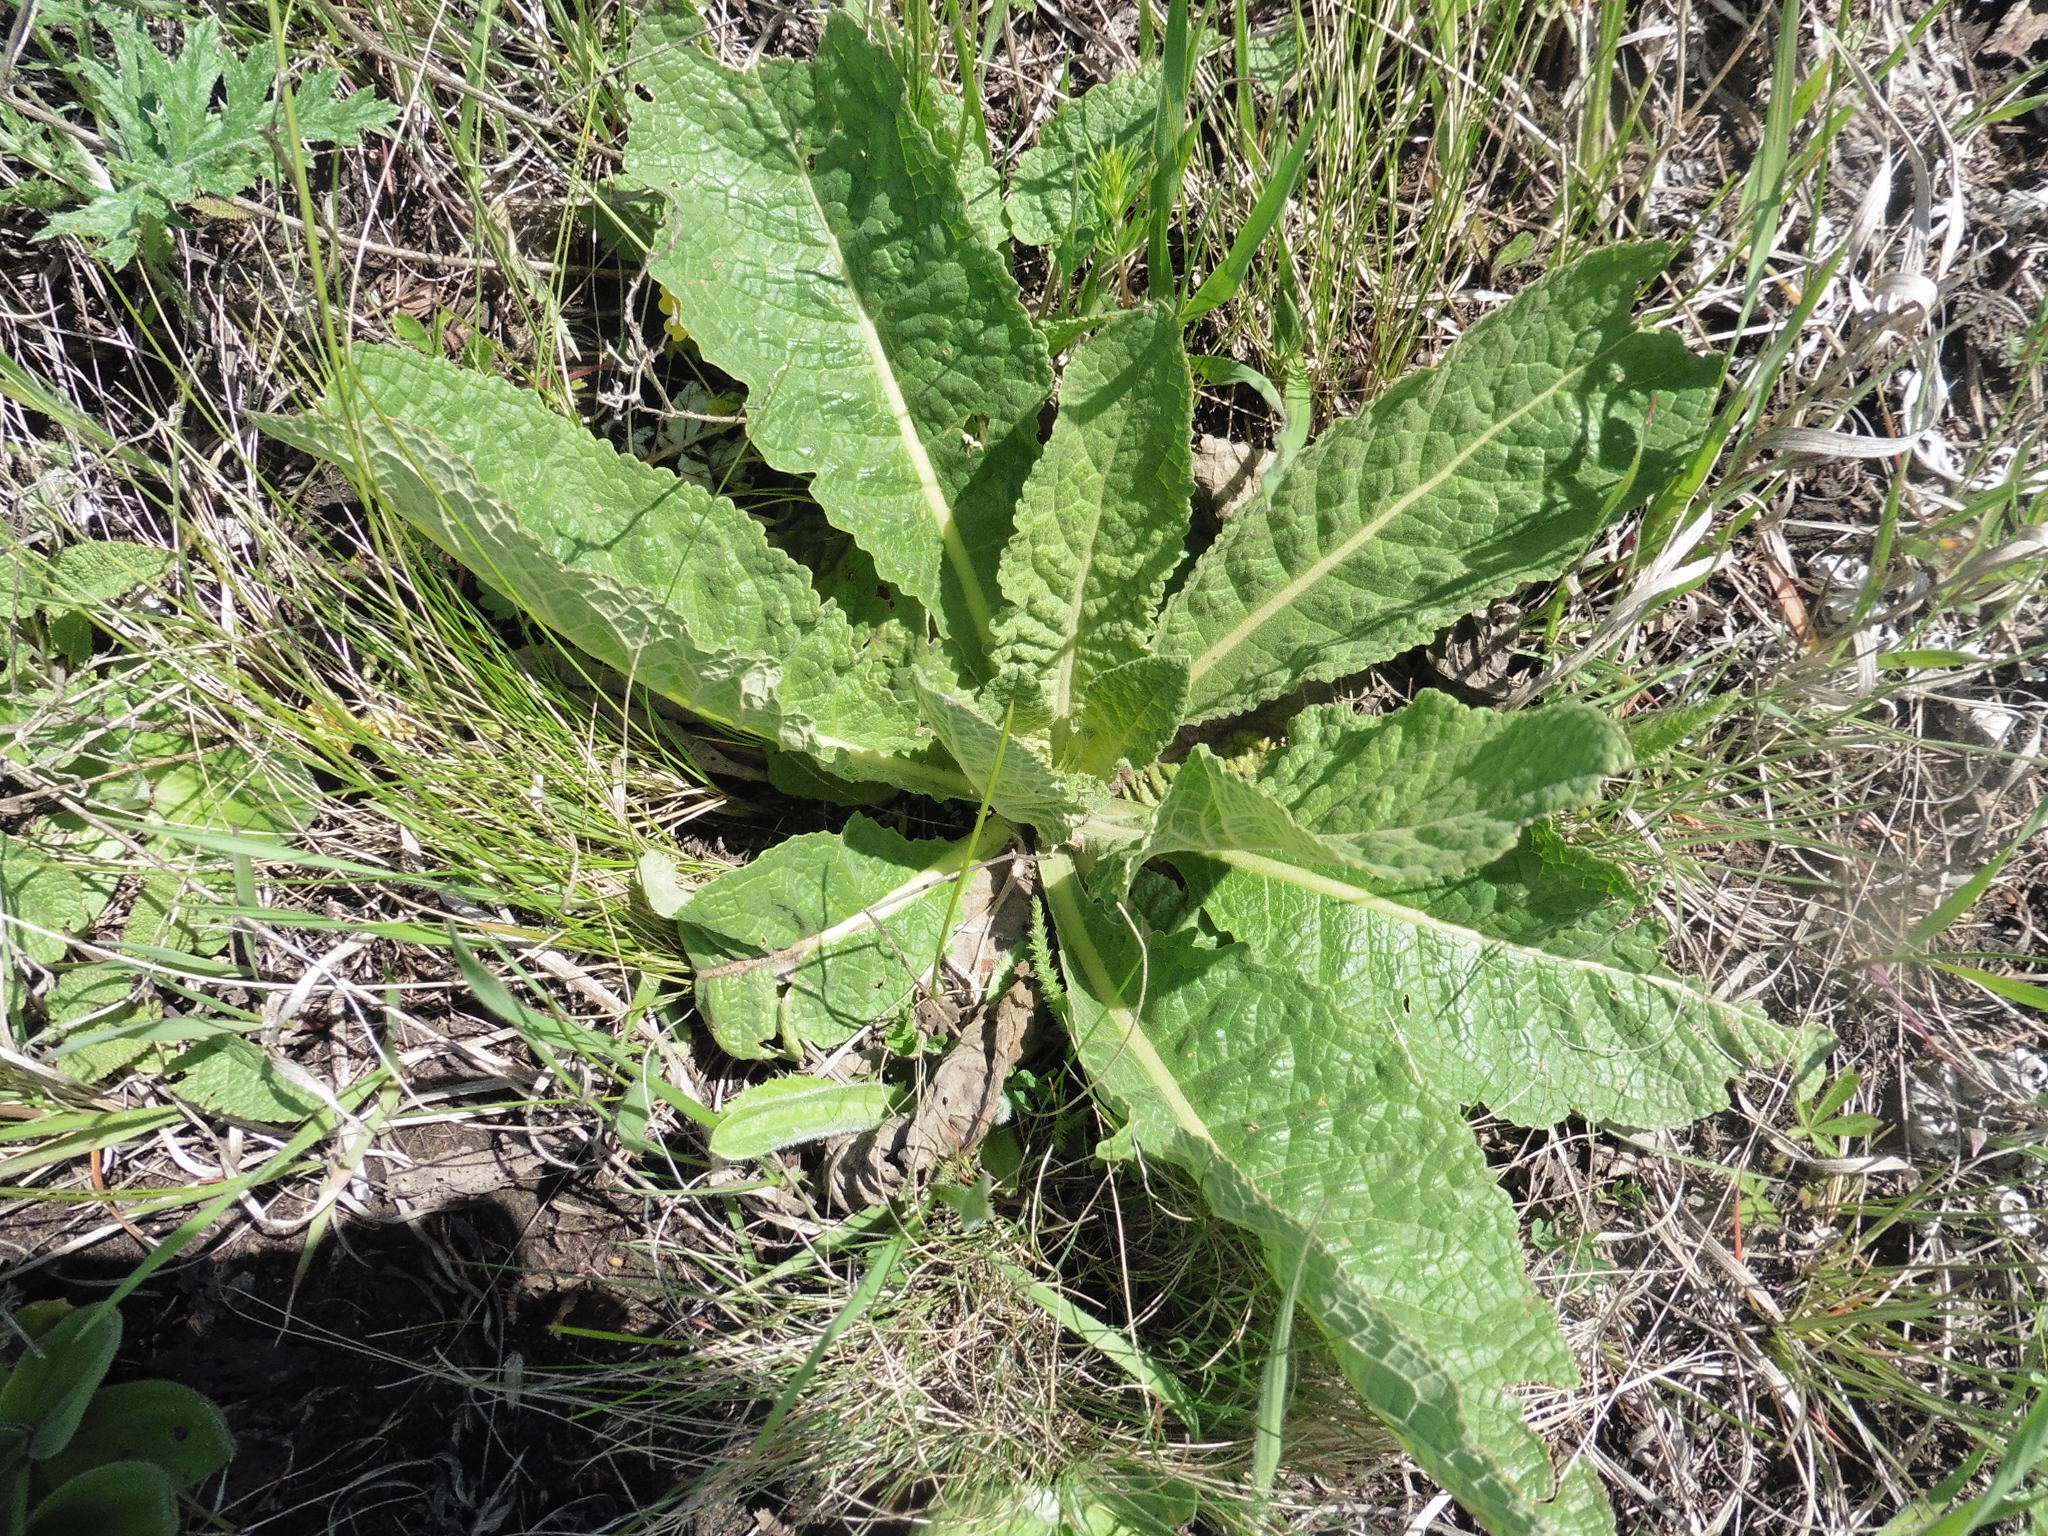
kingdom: Plantae
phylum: Tracheophyta
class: Magnoliopsida
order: Lamiales
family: Scrophulariaceae
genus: Verbascum
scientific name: Verbascum lychnitis
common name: White mullein
